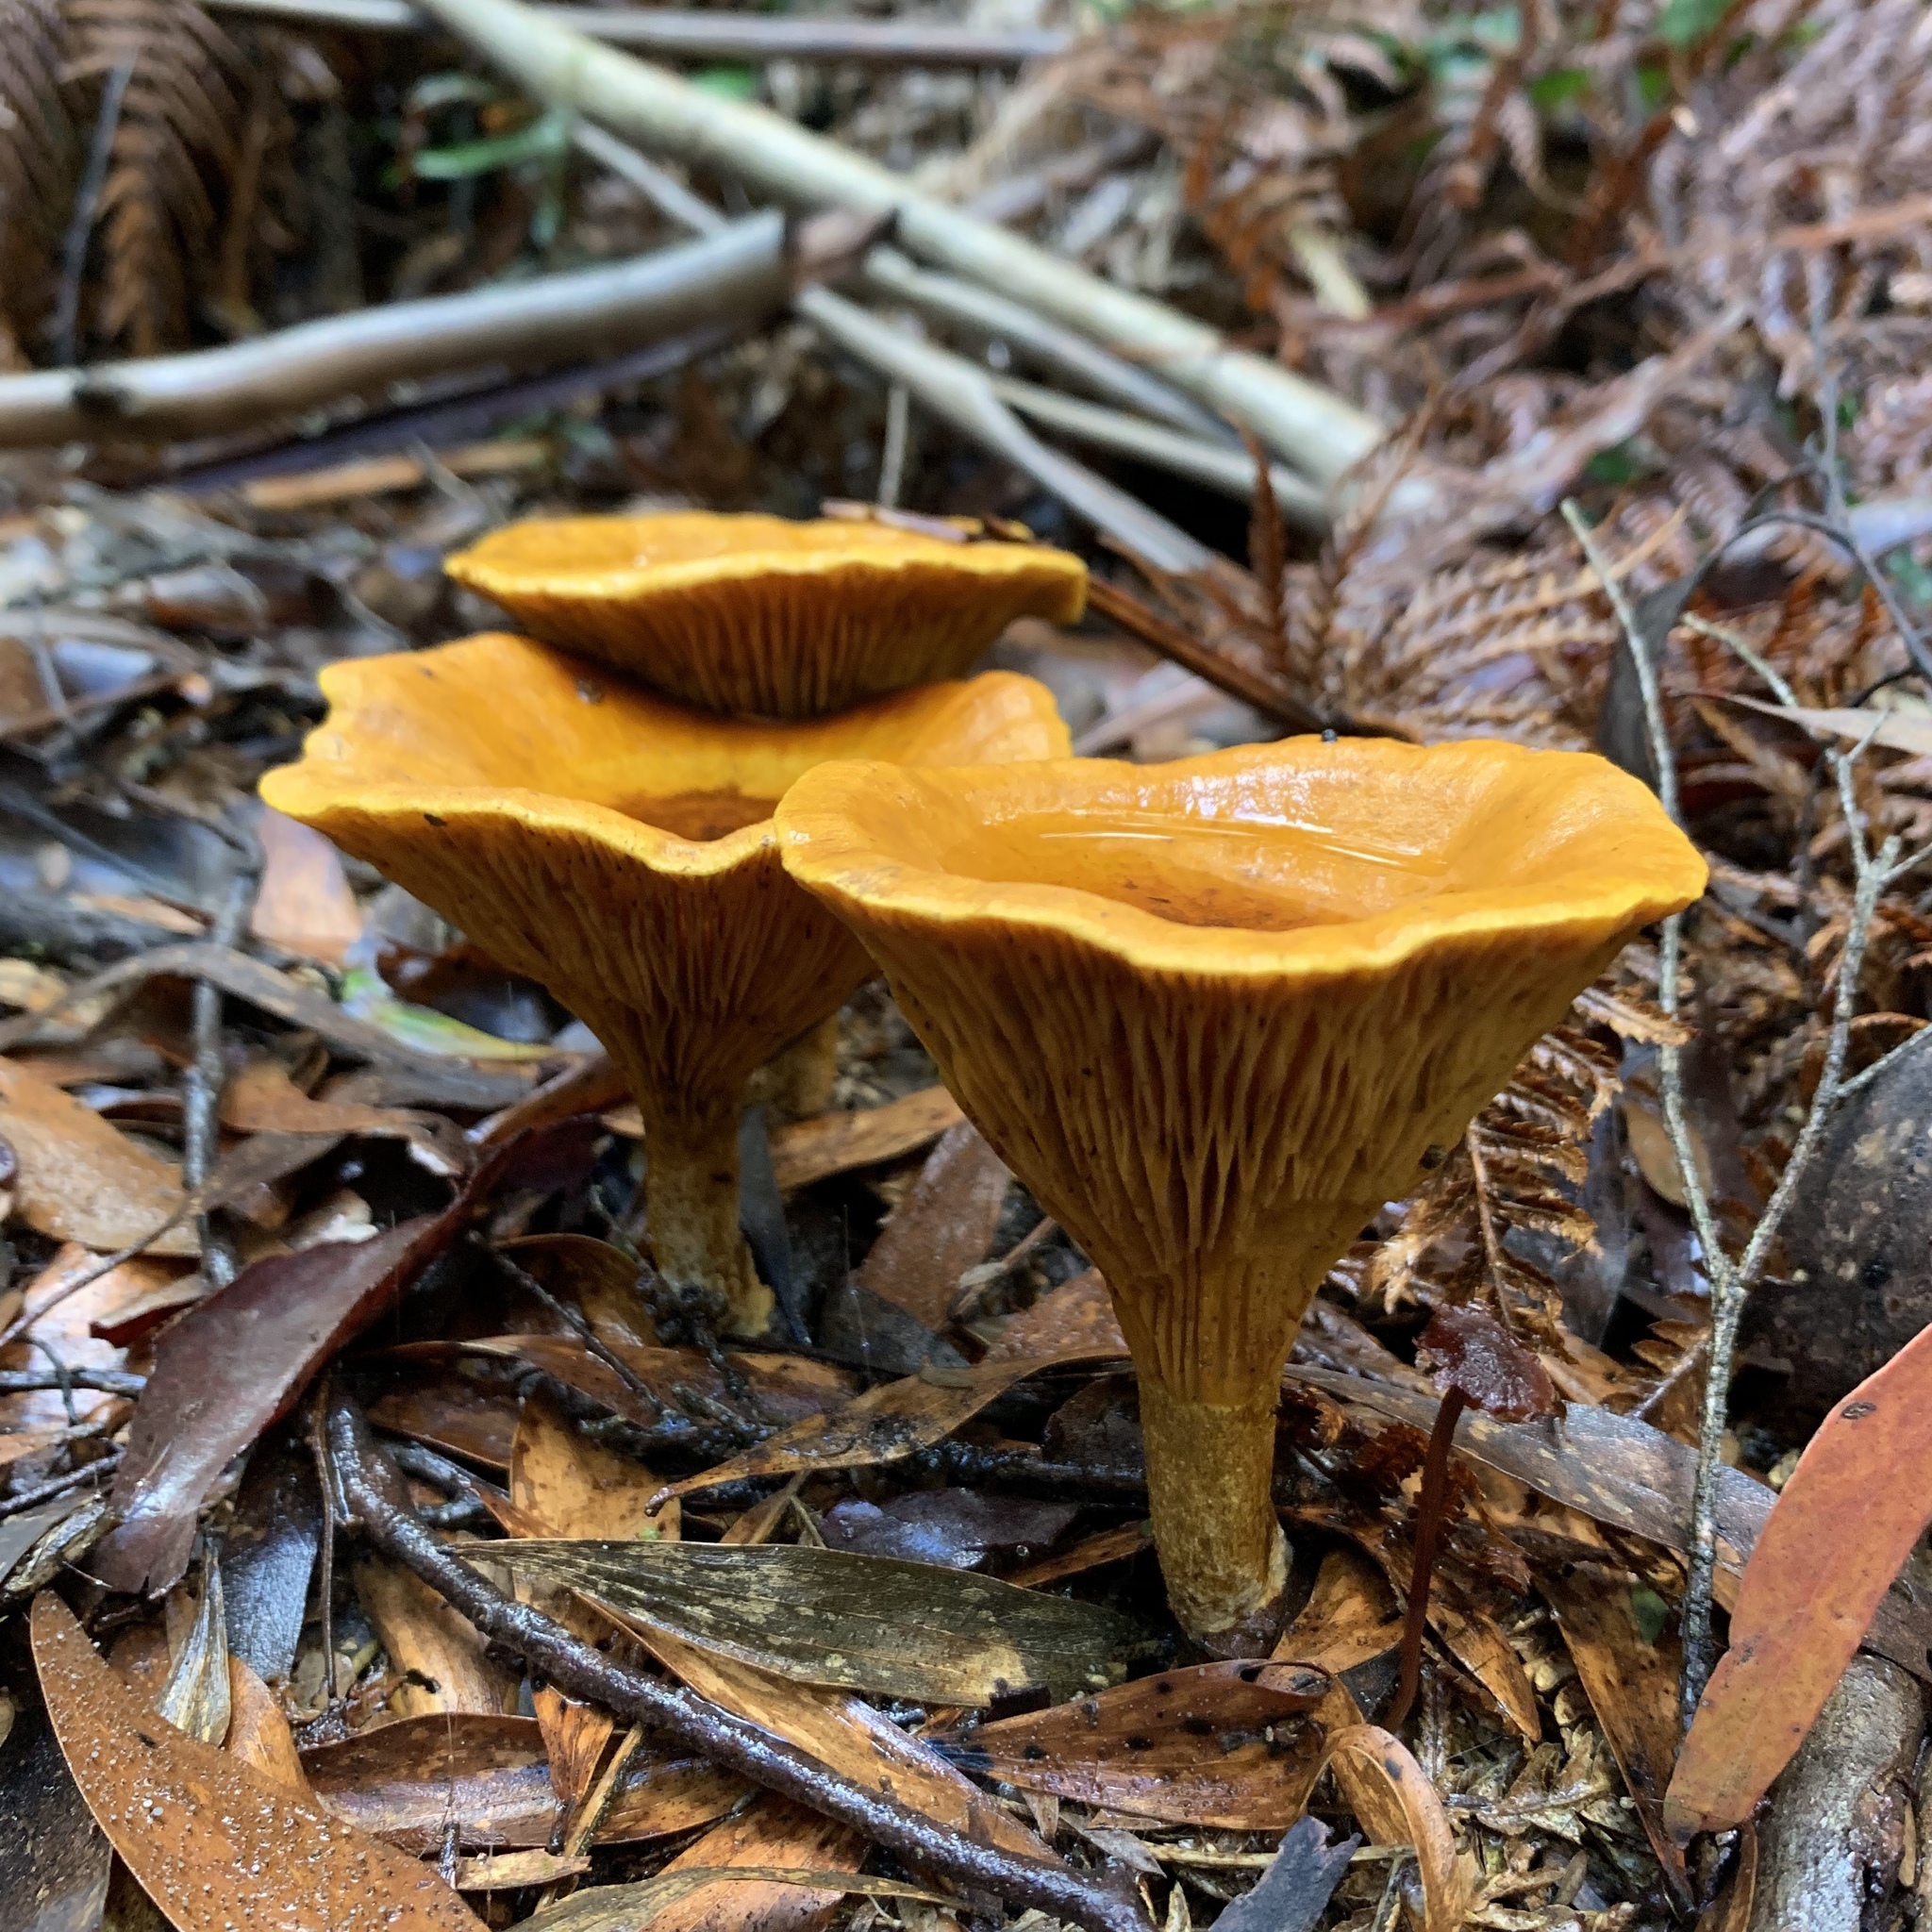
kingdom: Fungi
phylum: Basidiomycota
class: Agaricomycetes
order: Boletales
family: Serpulaceae
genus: Austropaxillus
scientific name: Austropaxillus infundibuliformis
